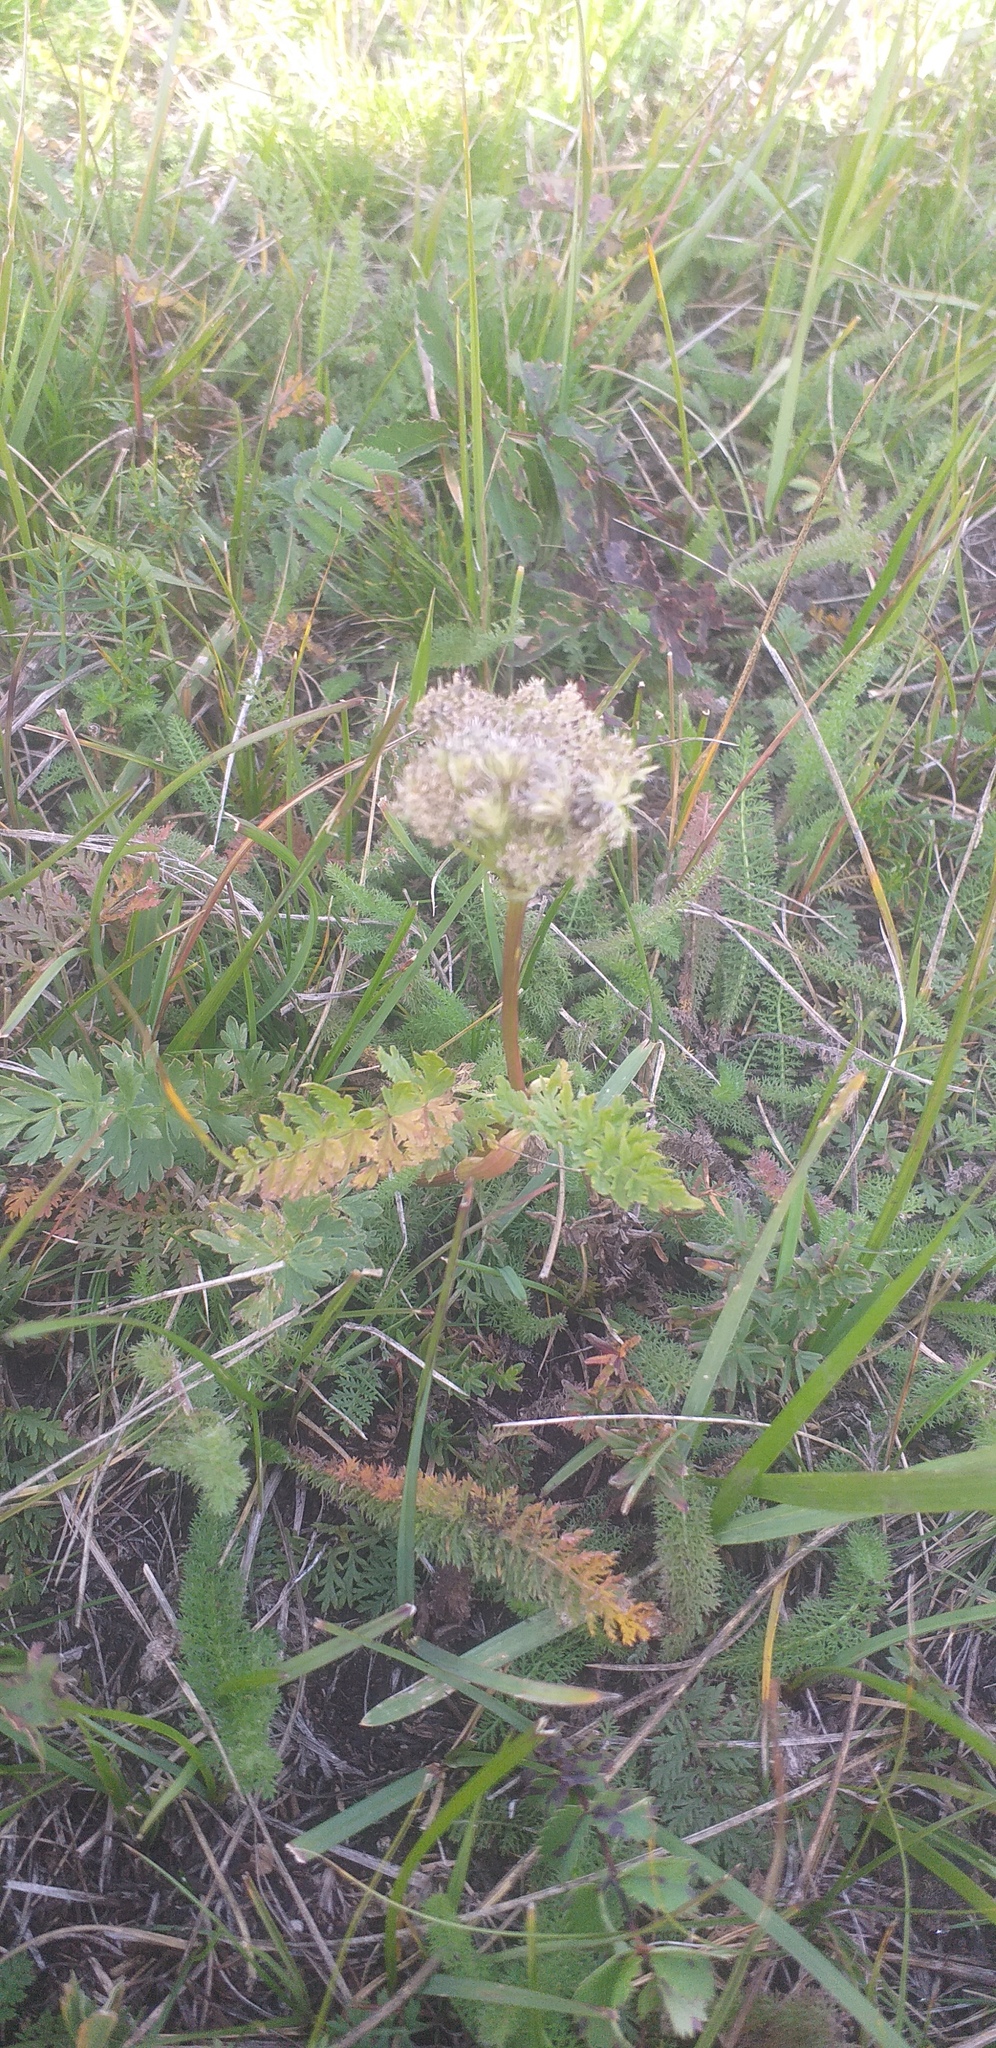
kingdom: Plantae
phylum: Tracheophyta
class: Magnoliopsida
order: Apiales
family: Apiaceae
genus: Schulzia
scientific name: Schulzia crinita
